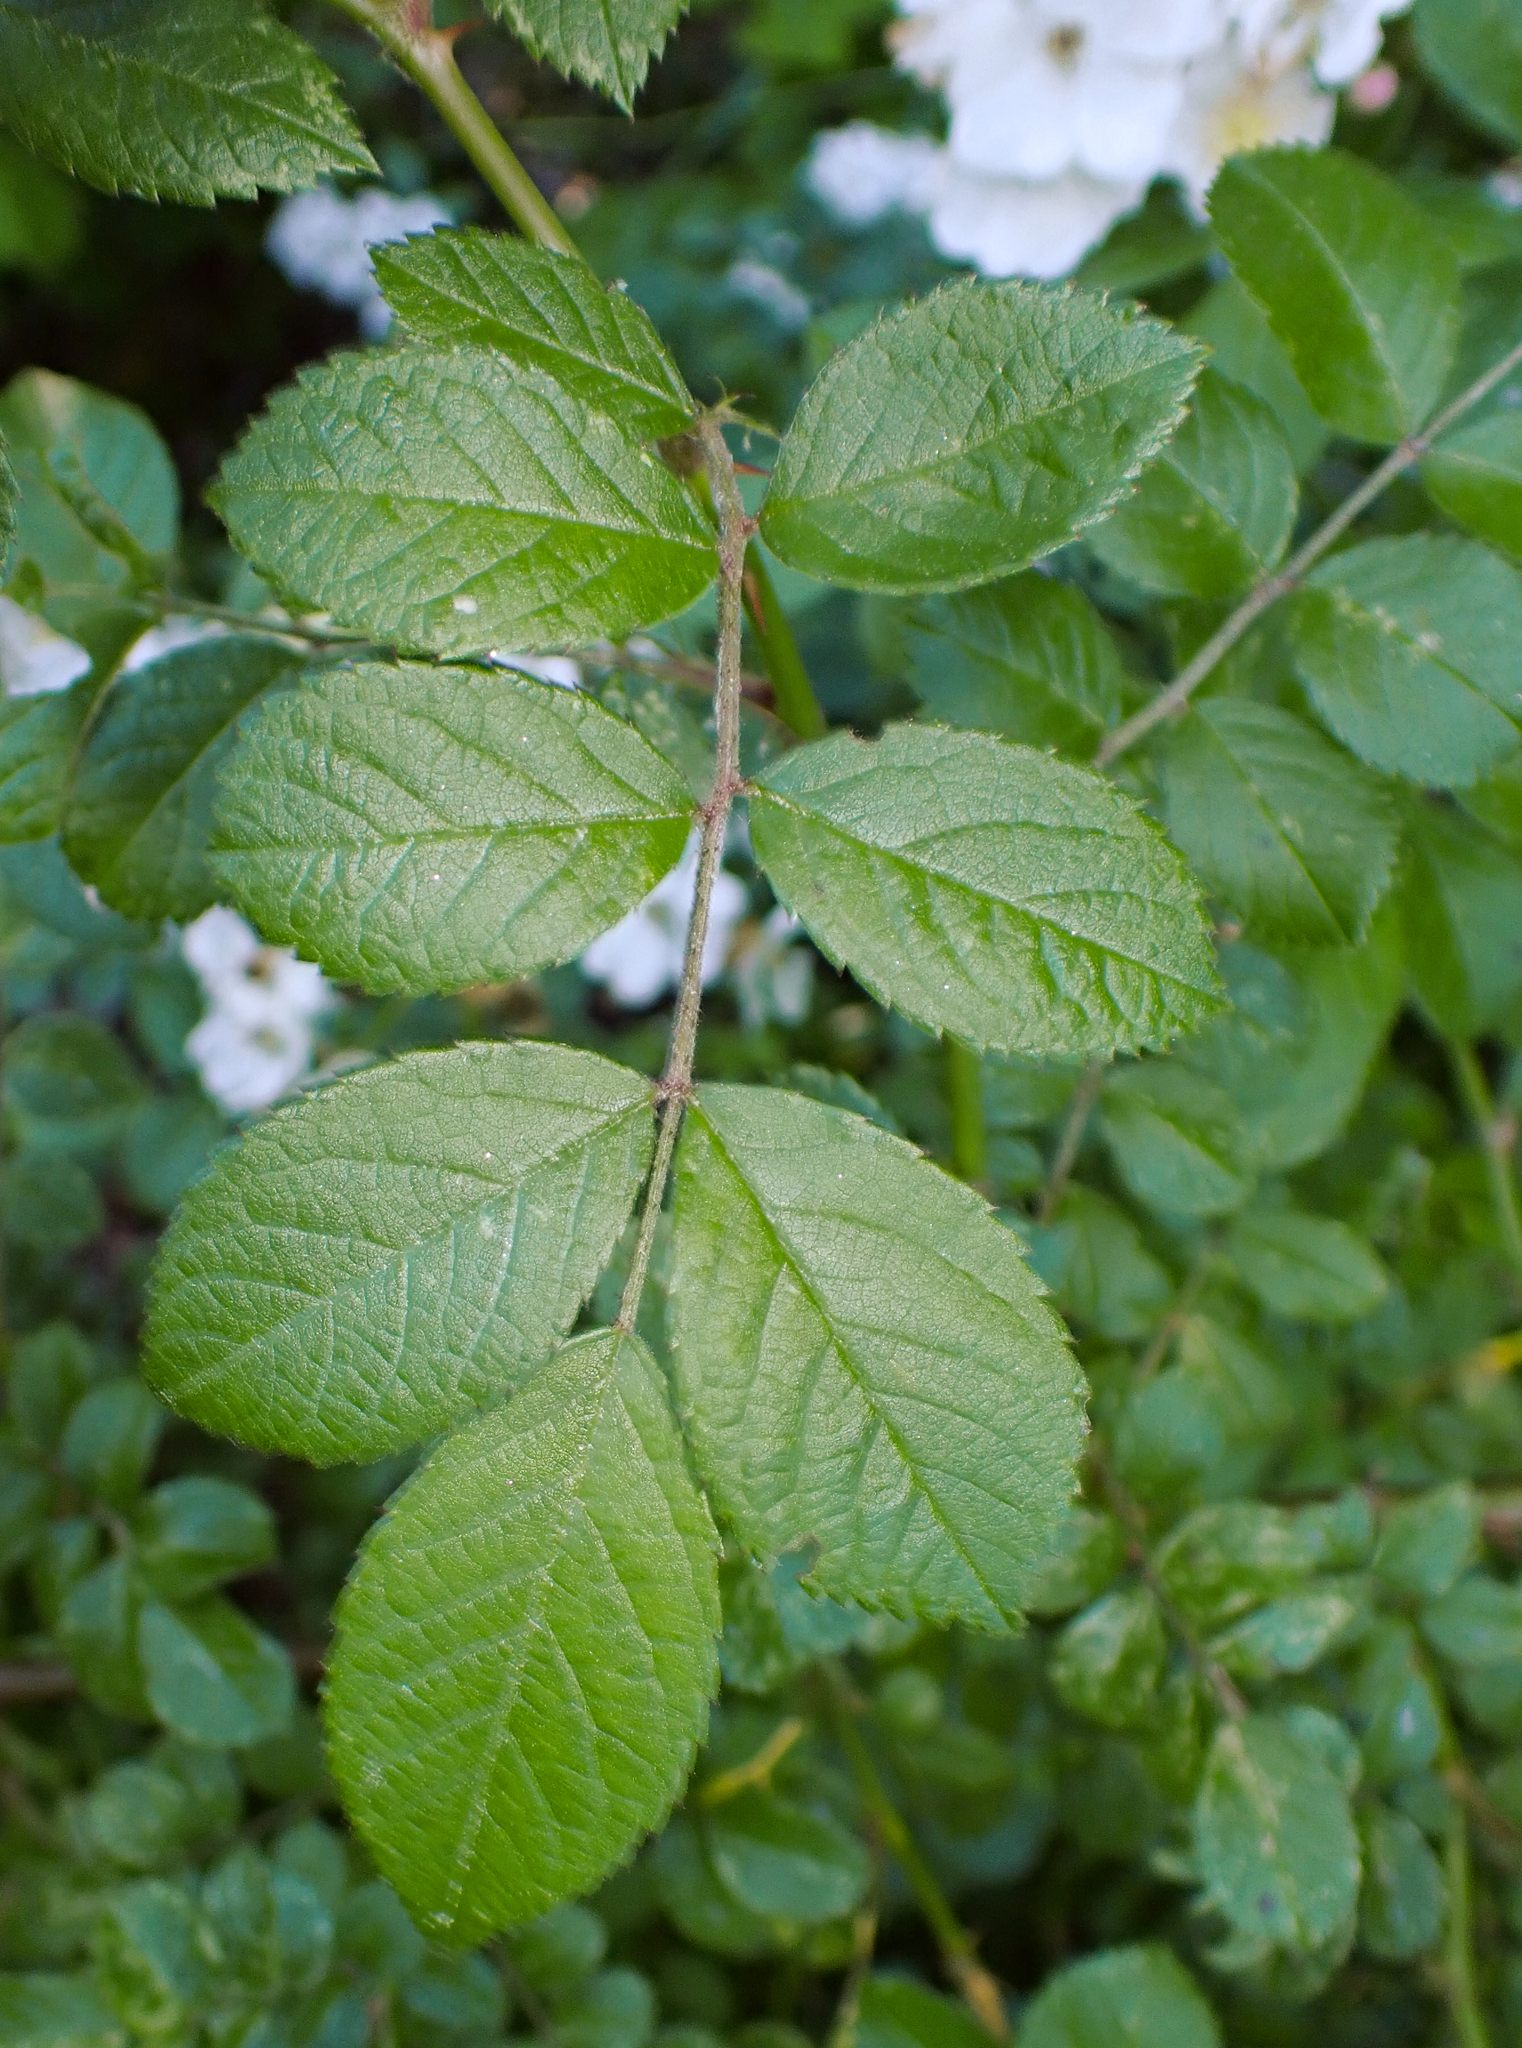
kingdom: Plantae
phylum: Tracheophyta
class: Magnoliopsida
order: Rosales
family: Rosaceae
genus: Rosa
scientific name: Rosa multiflora
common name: Multiflora rose
